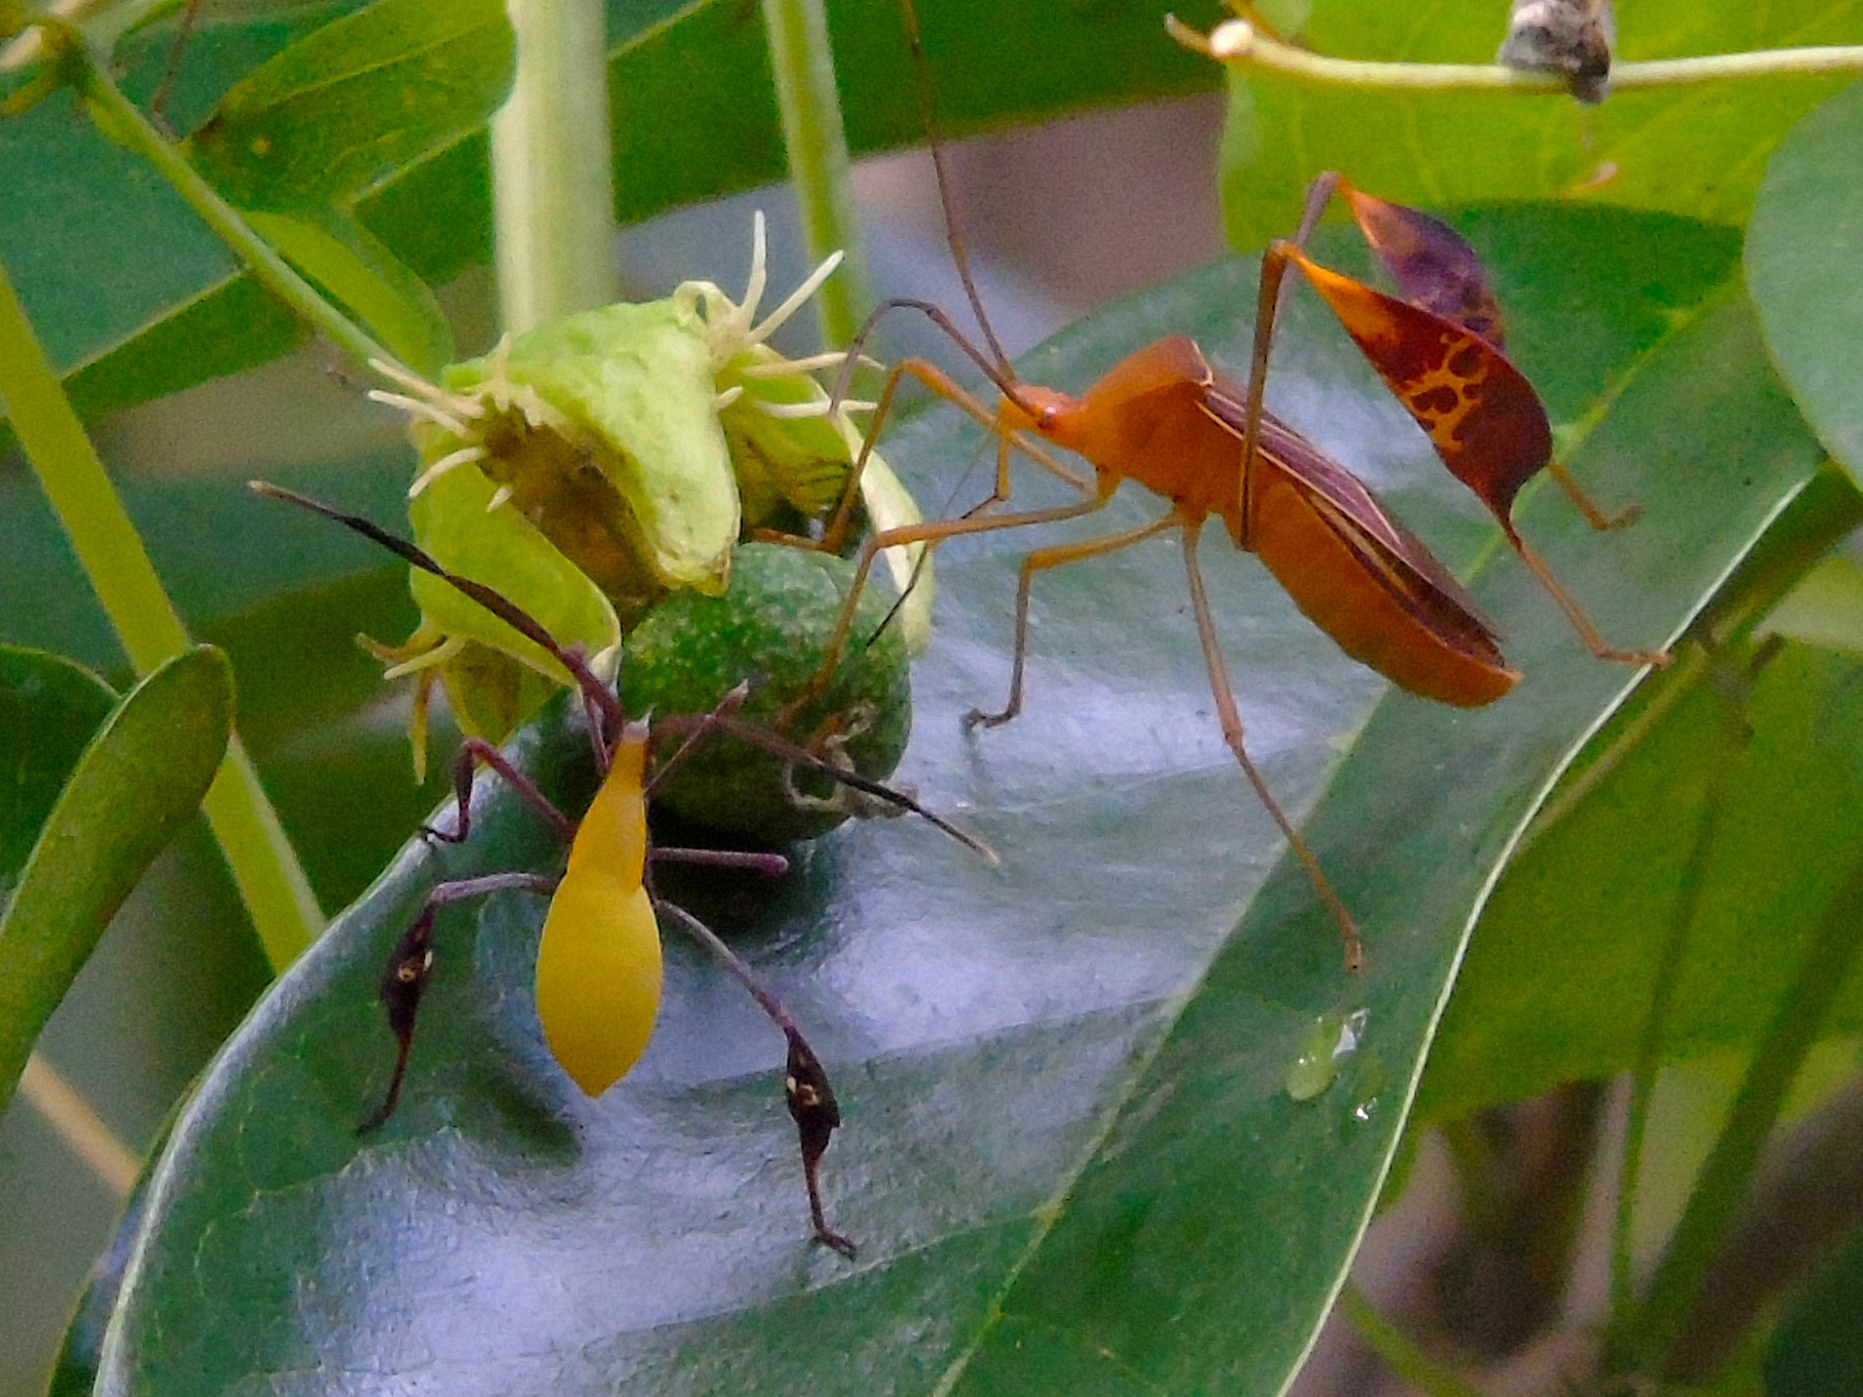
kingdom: Animalia
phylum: Arthropoda
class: Insecta
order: Hemiptera
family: Coreidae
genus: Bitta
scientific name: Bitta
